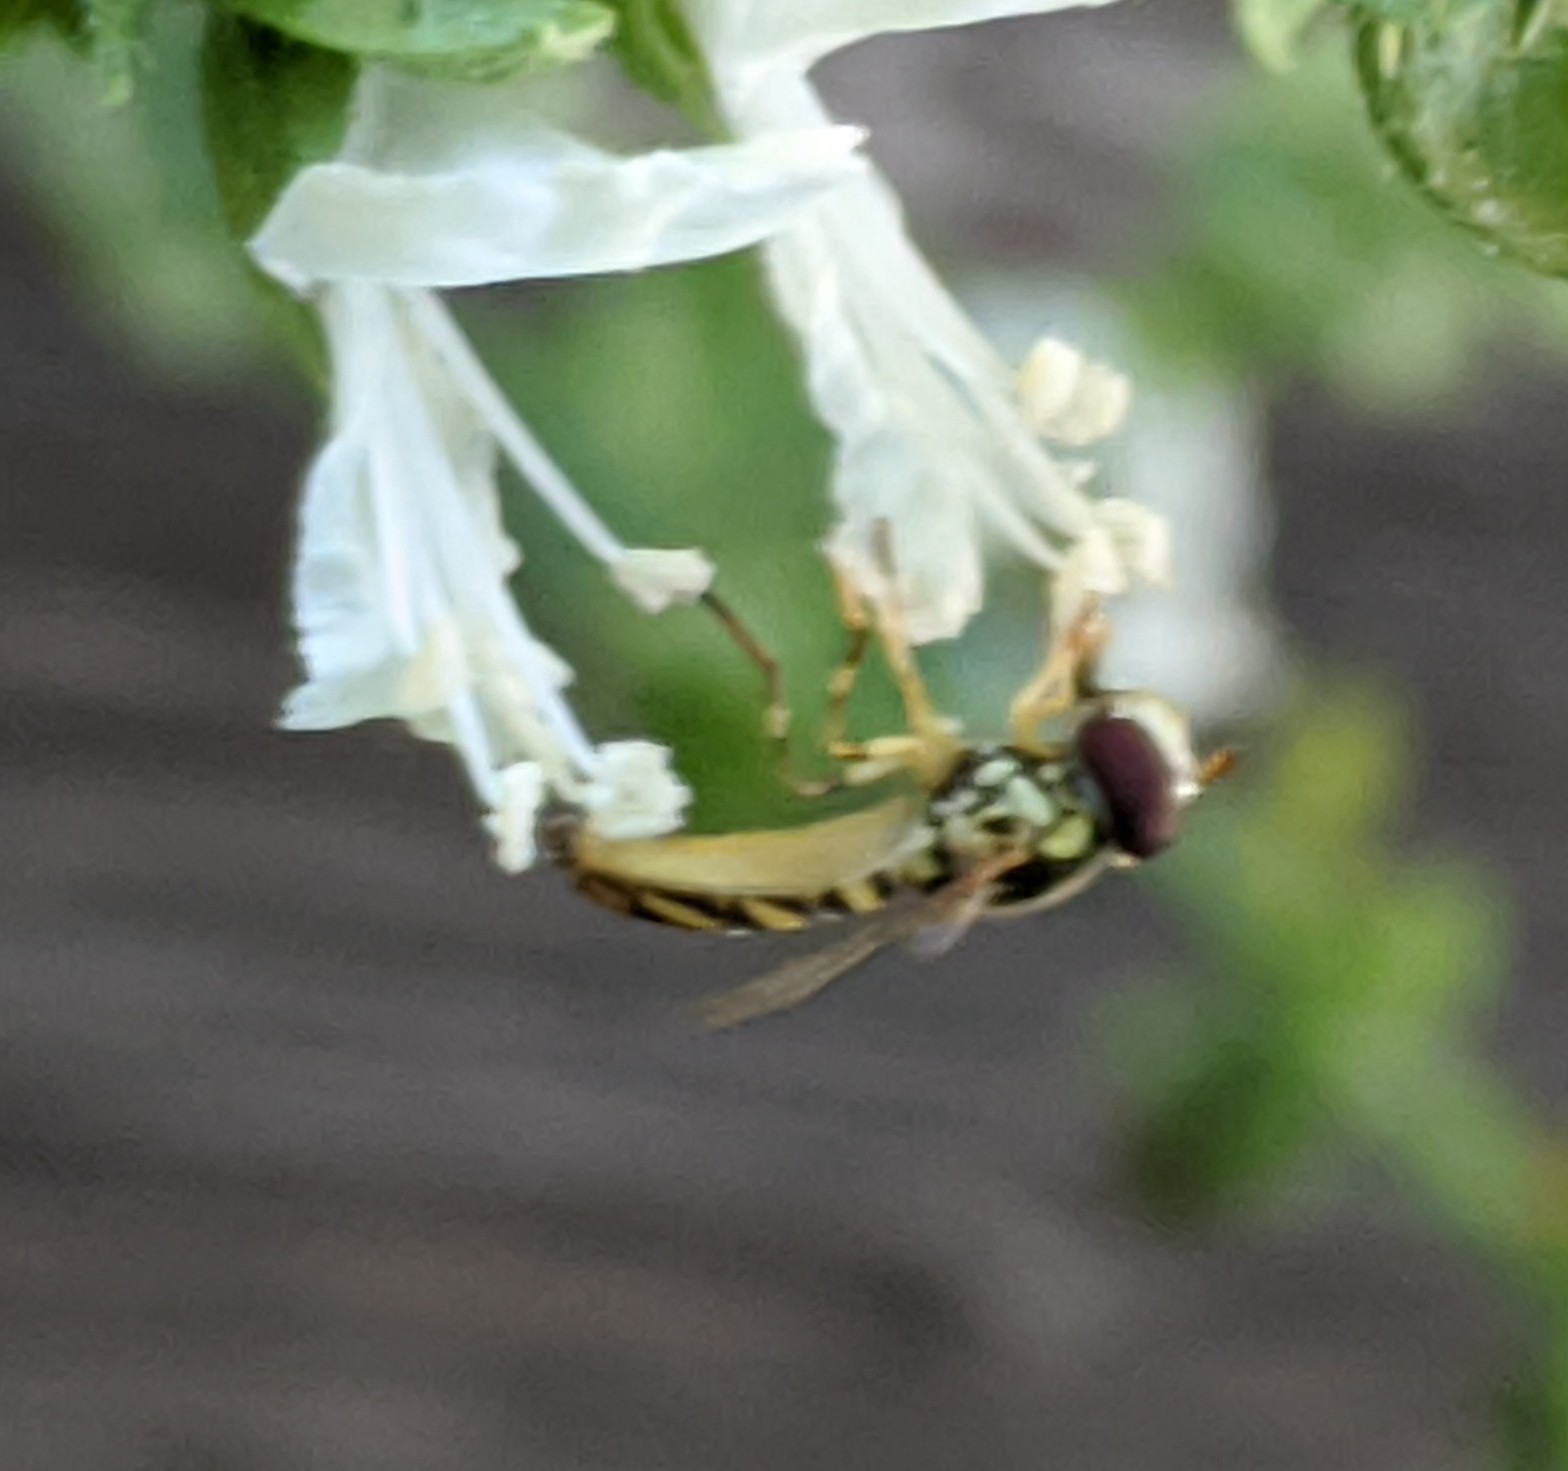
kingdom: Animalia
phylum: Arthropoda
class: Insecta
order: Diptera
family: Syrphidae
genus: Allograpta
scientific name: Allograpta obliqua
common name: Common oblique syrphid
